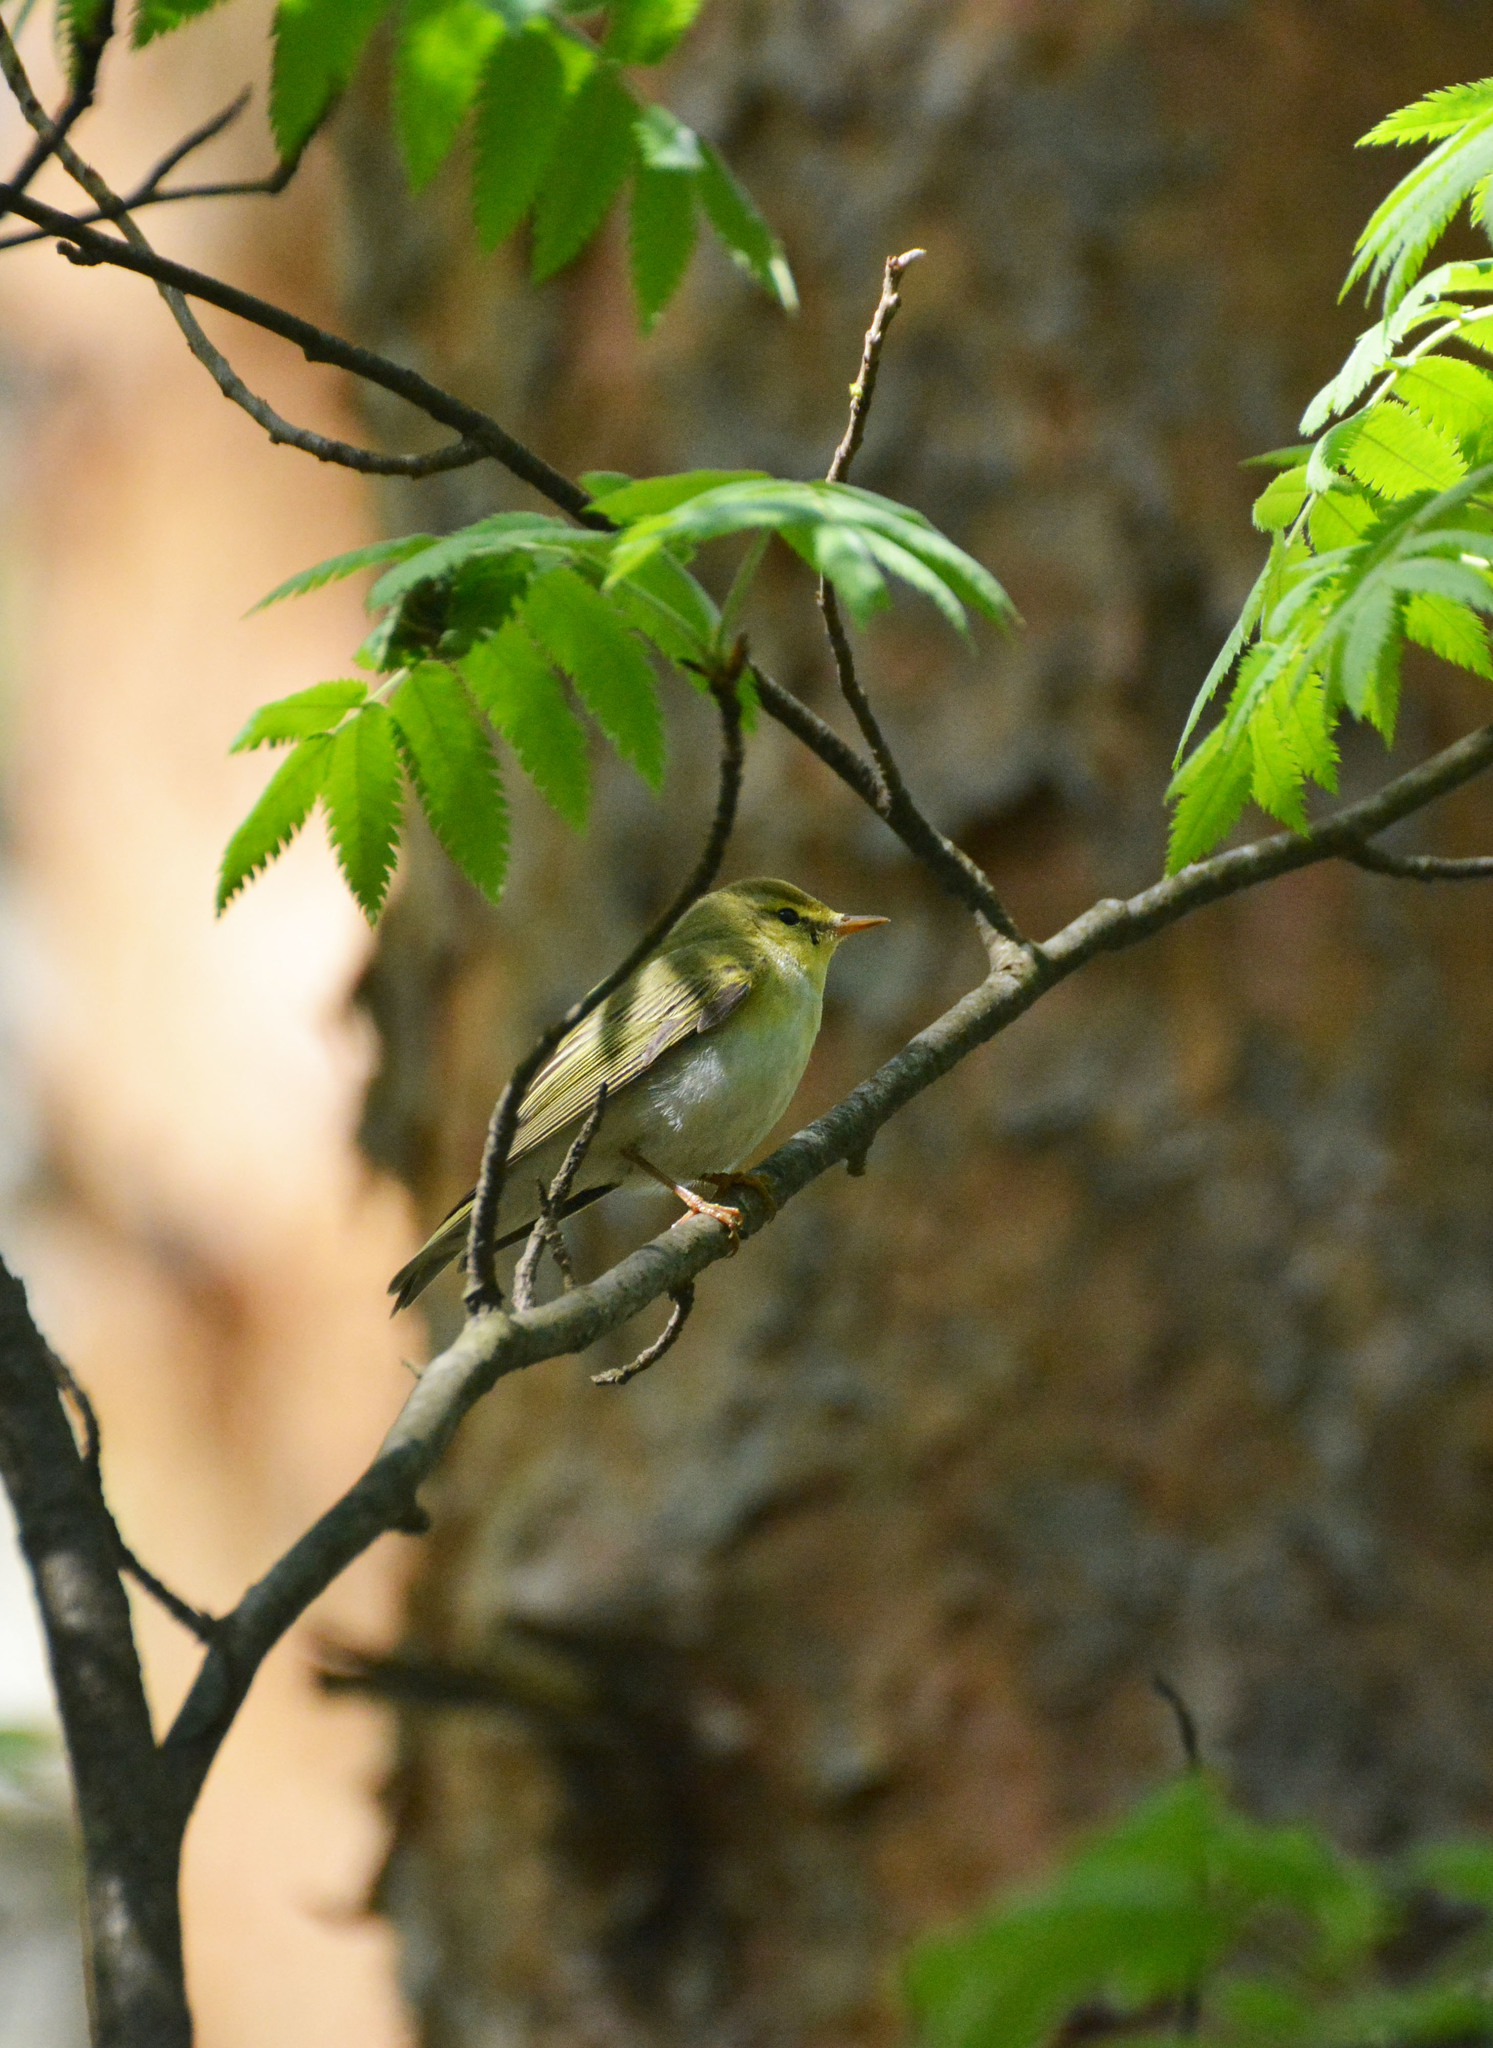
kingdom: Animalia
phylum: Chordata
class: Aves
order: Passeriformes
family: Phylloscopidae
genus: Phylloscopus
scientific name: Phylloscopus sibillatrix
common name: Wood warbler
